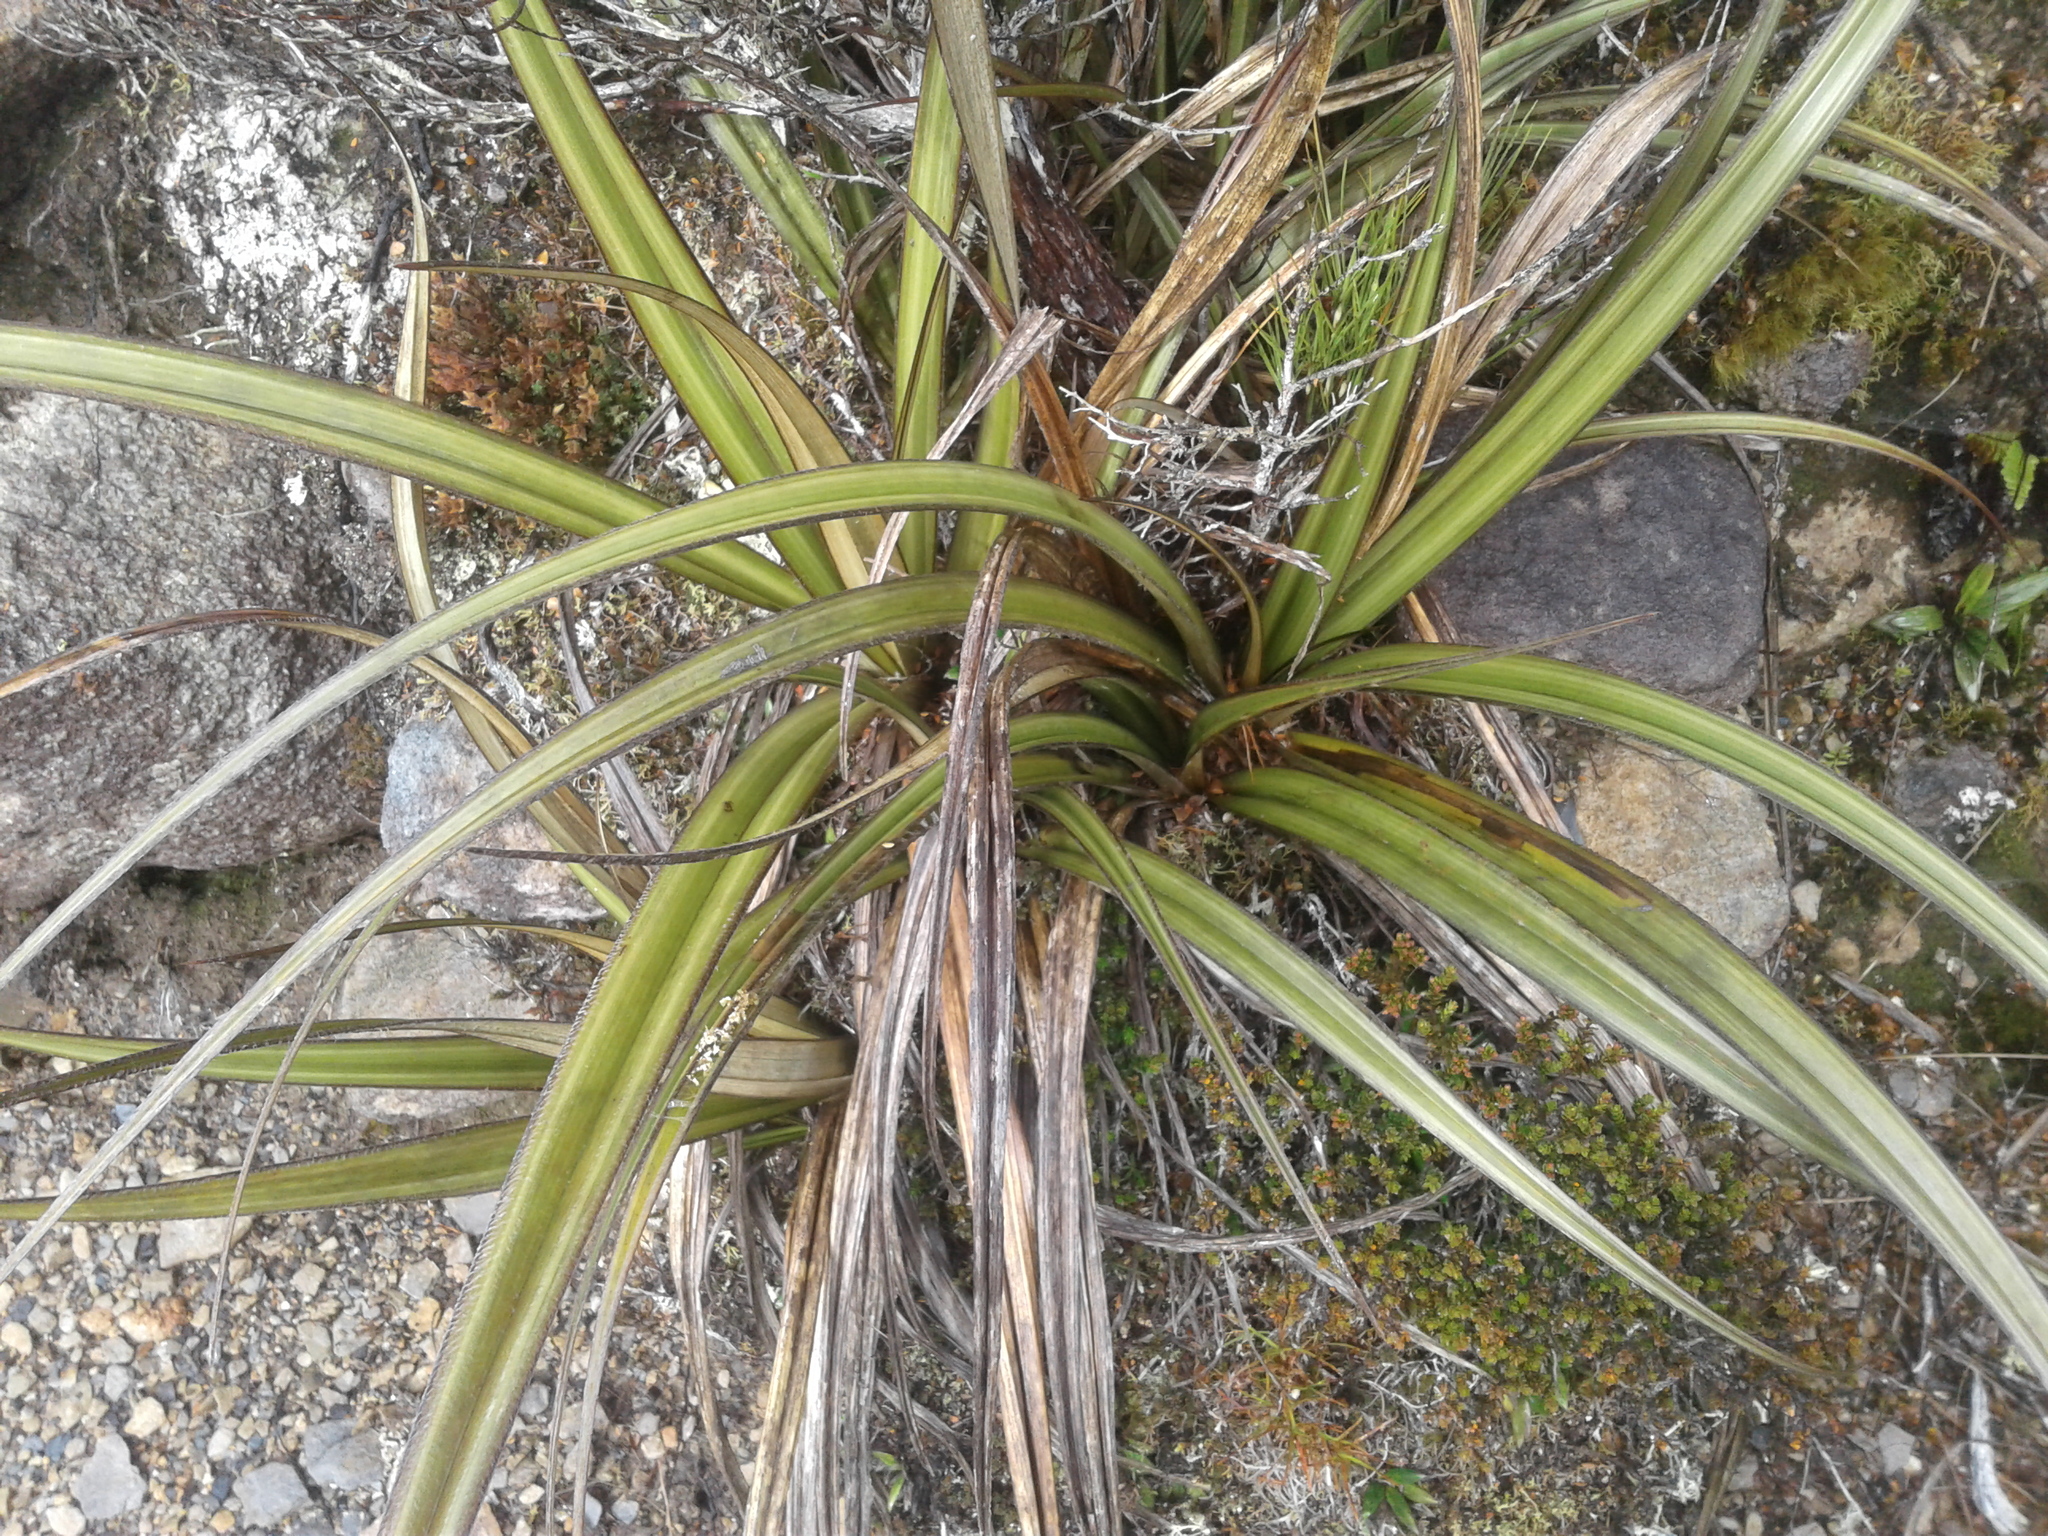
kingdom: Plantae
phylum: Tracheophyta
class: Liliopsida
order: Asparagales
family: Asteliaceae
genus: Astelia
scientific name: Astelia nervosa
